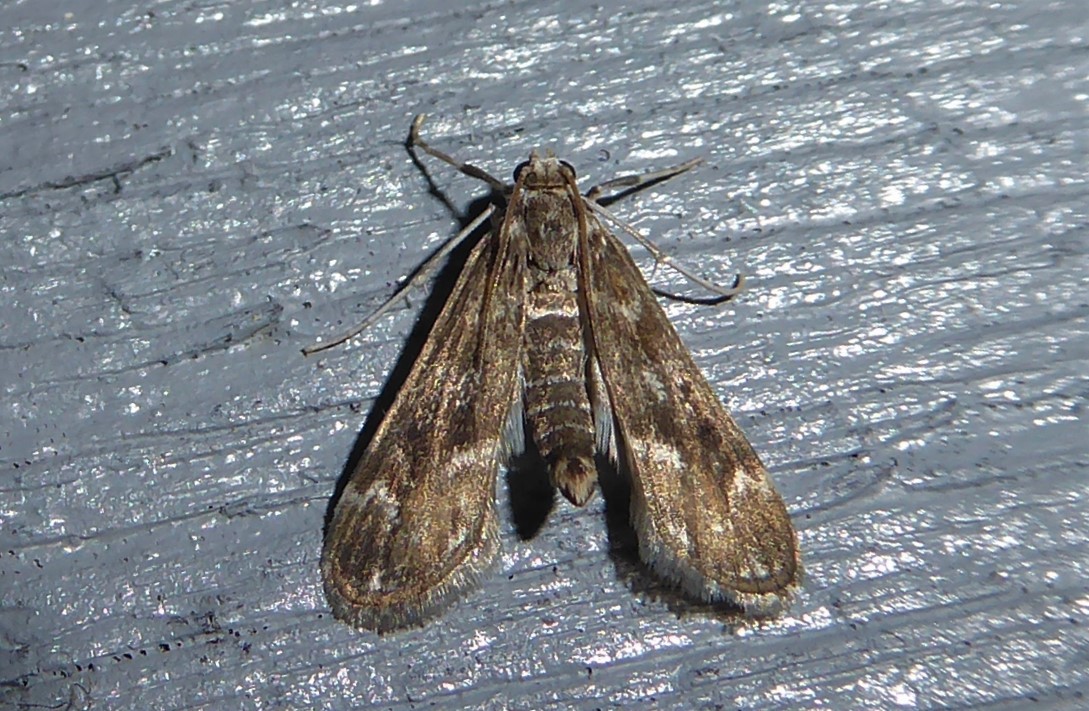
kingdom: Animalia
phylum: Arthropoda
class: Insecta
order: Lepidoptera
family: Crambidae
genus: Hygraula
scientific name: Hygraula nitens
